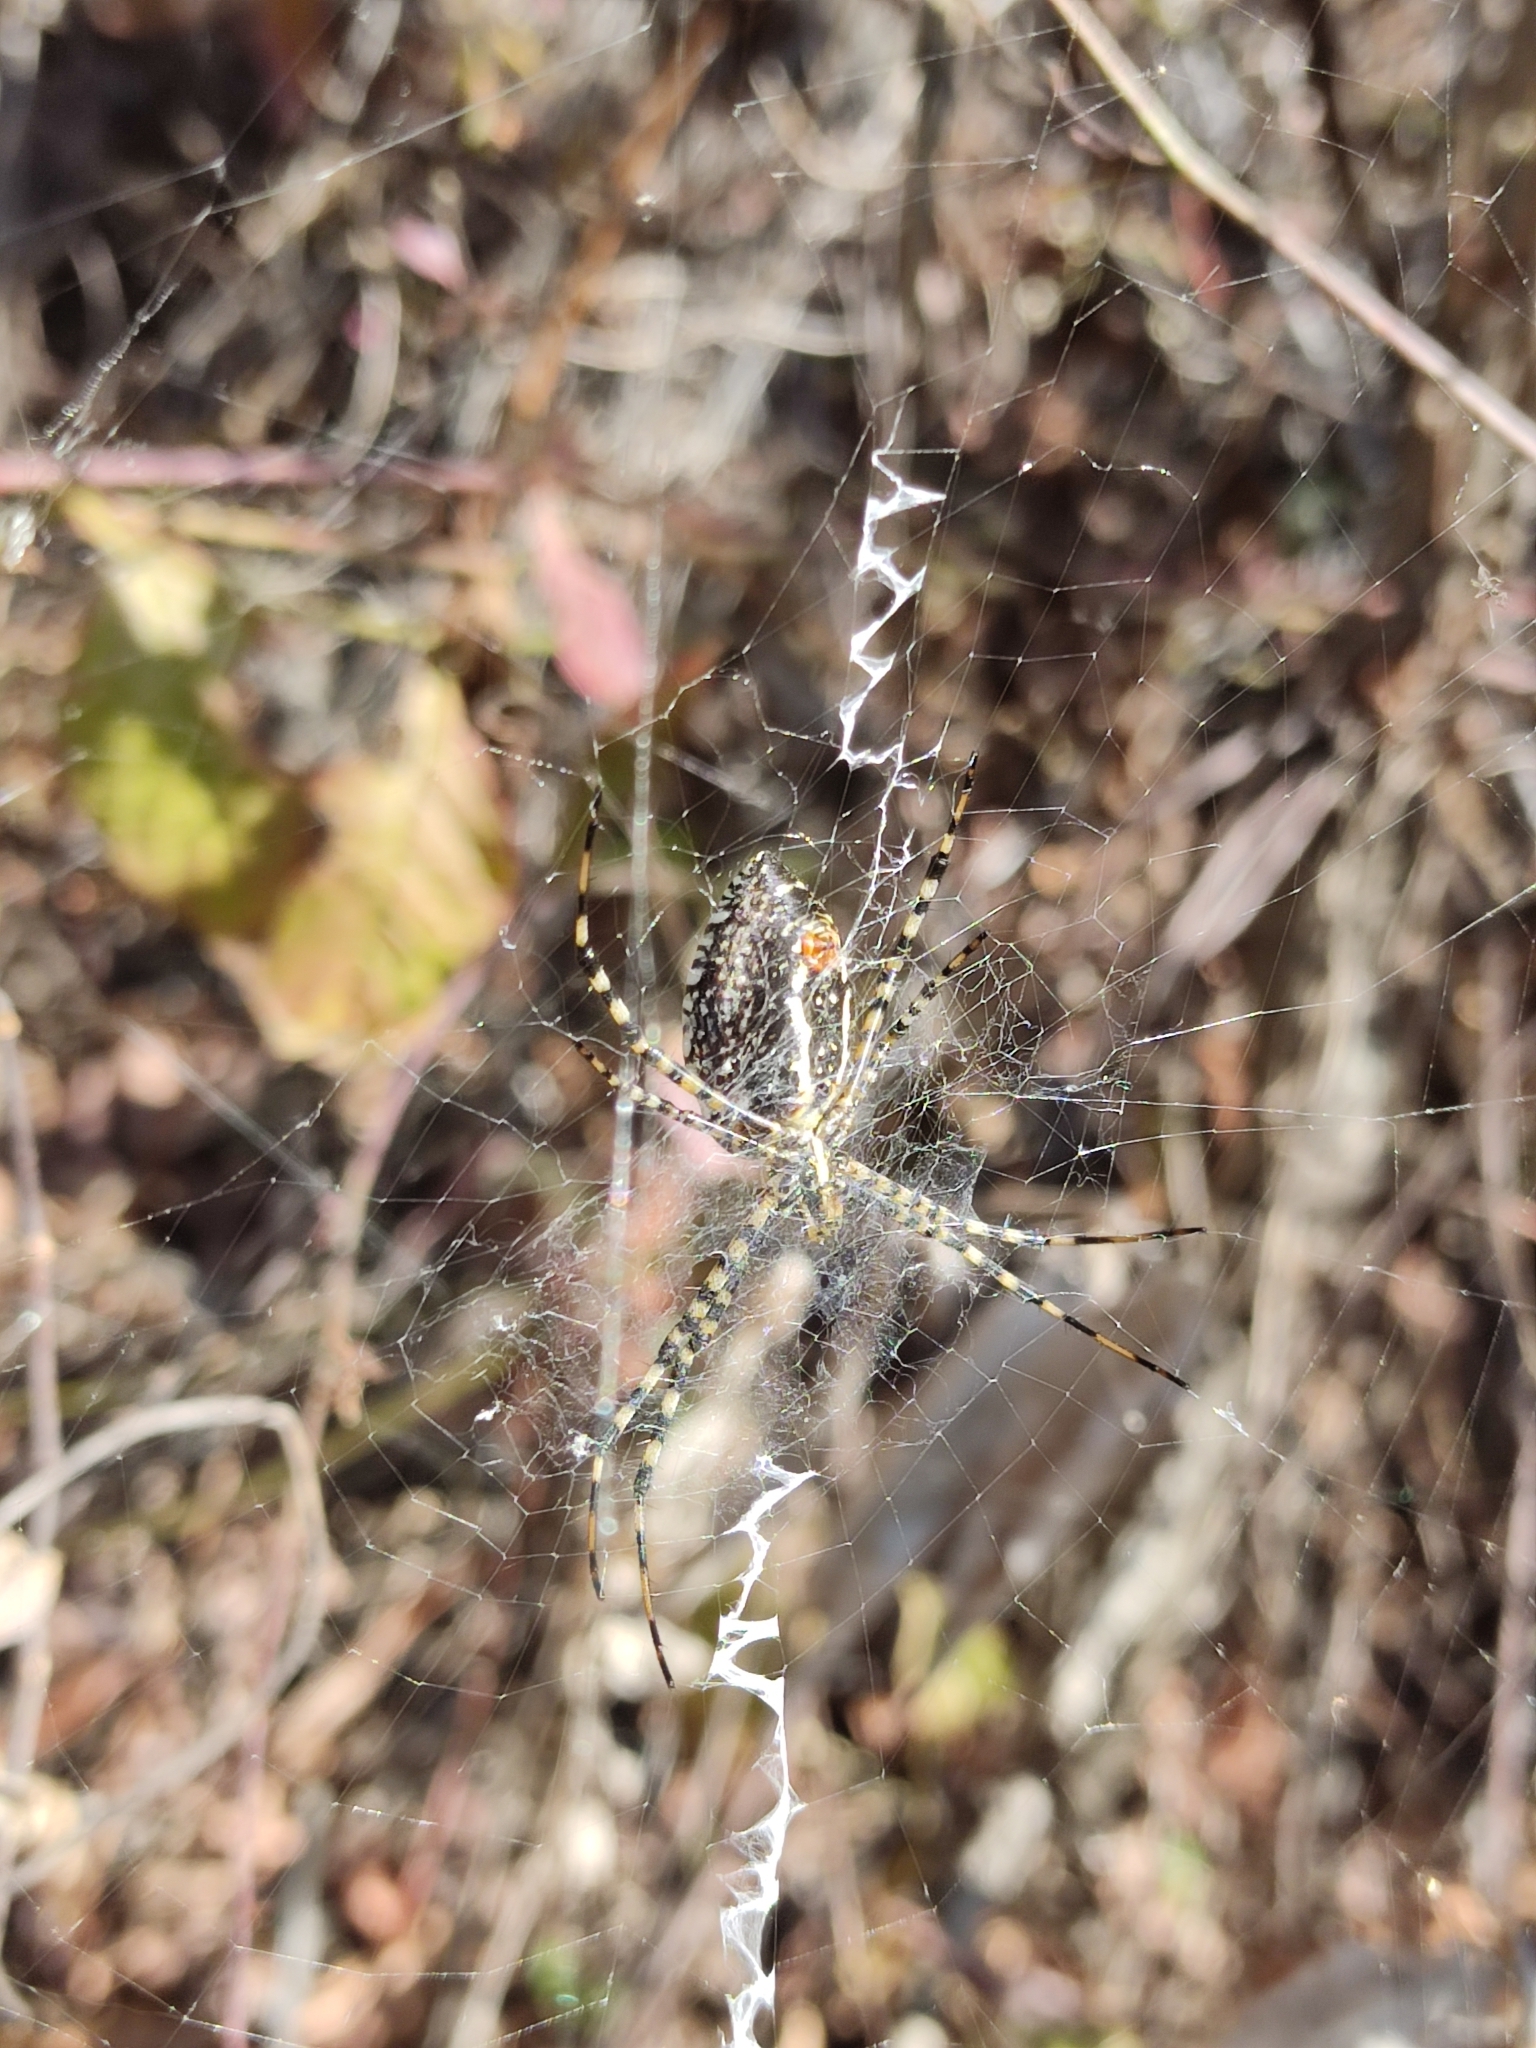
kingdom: Animalia
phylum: Arthropoda
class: Arachnida
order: Araneae
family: Araneidae
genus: Argiope
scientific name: Argiope trifasciata
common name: Banded garden spider
